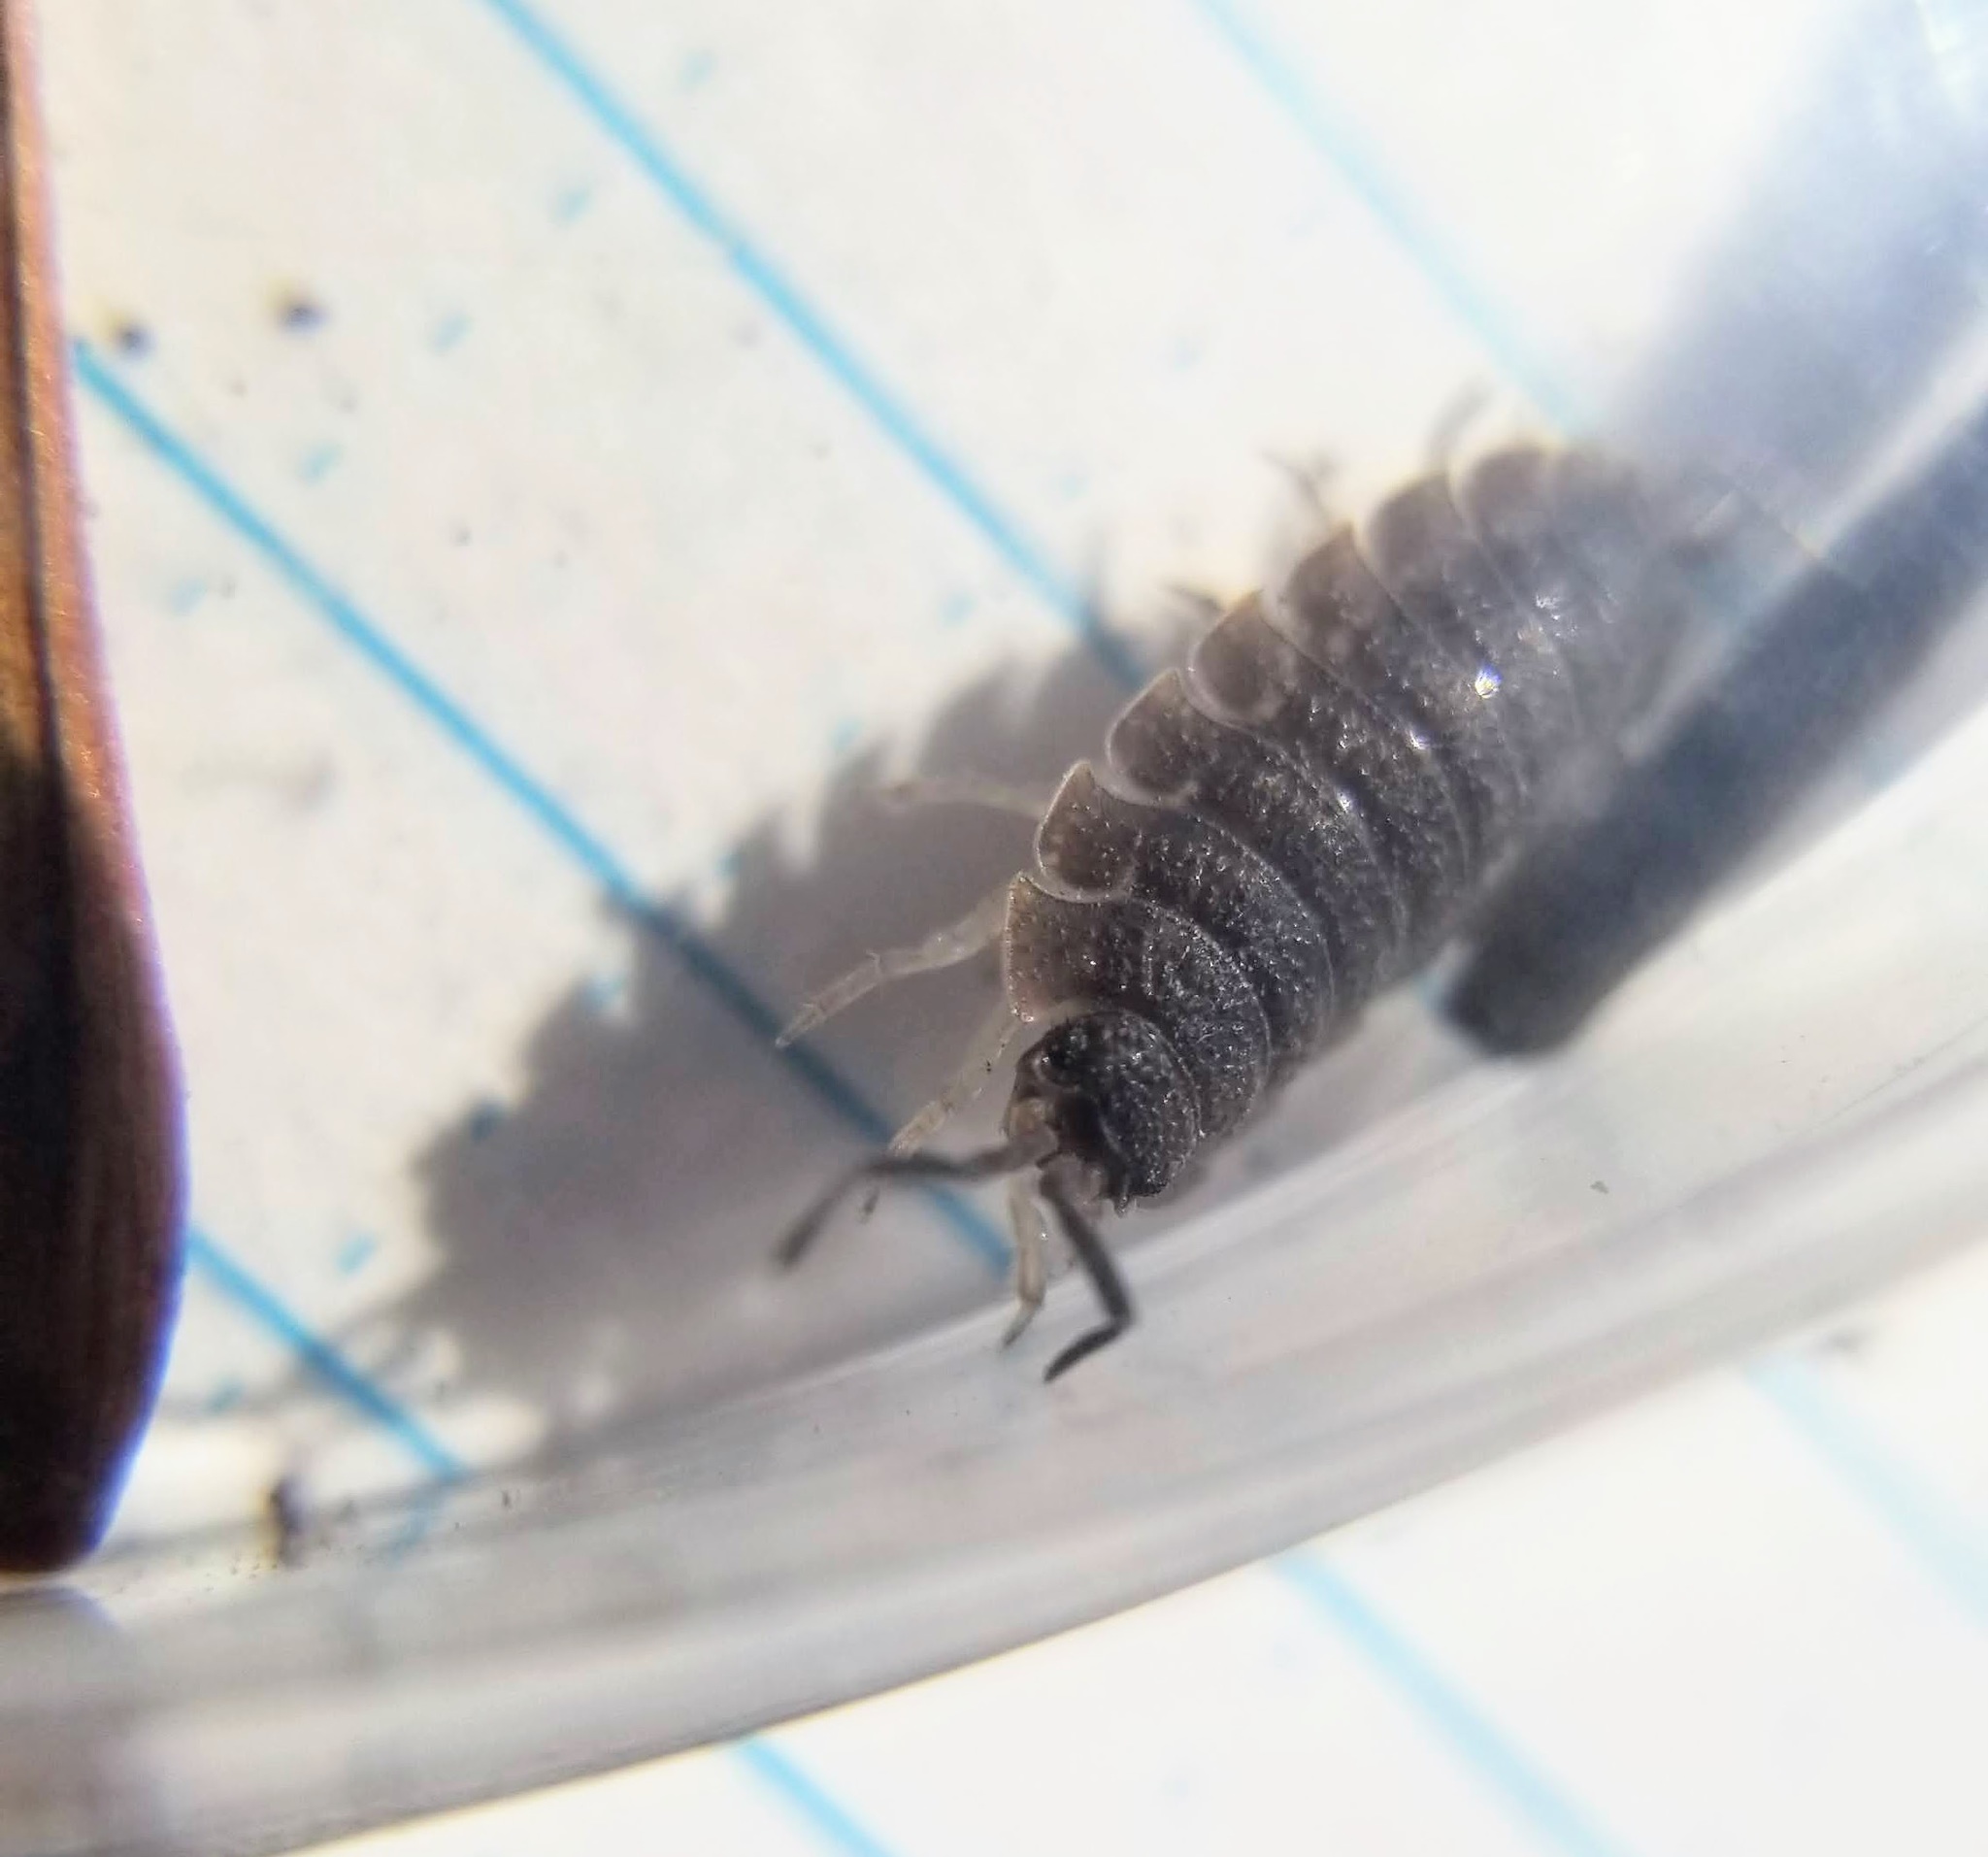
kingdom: Animalia
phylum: Arthropoda
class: Malacostraca
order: Isopoda
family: Porcellionidae
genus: Porcellio
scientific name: Porcellio scaber
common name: Common rough woodlouse
